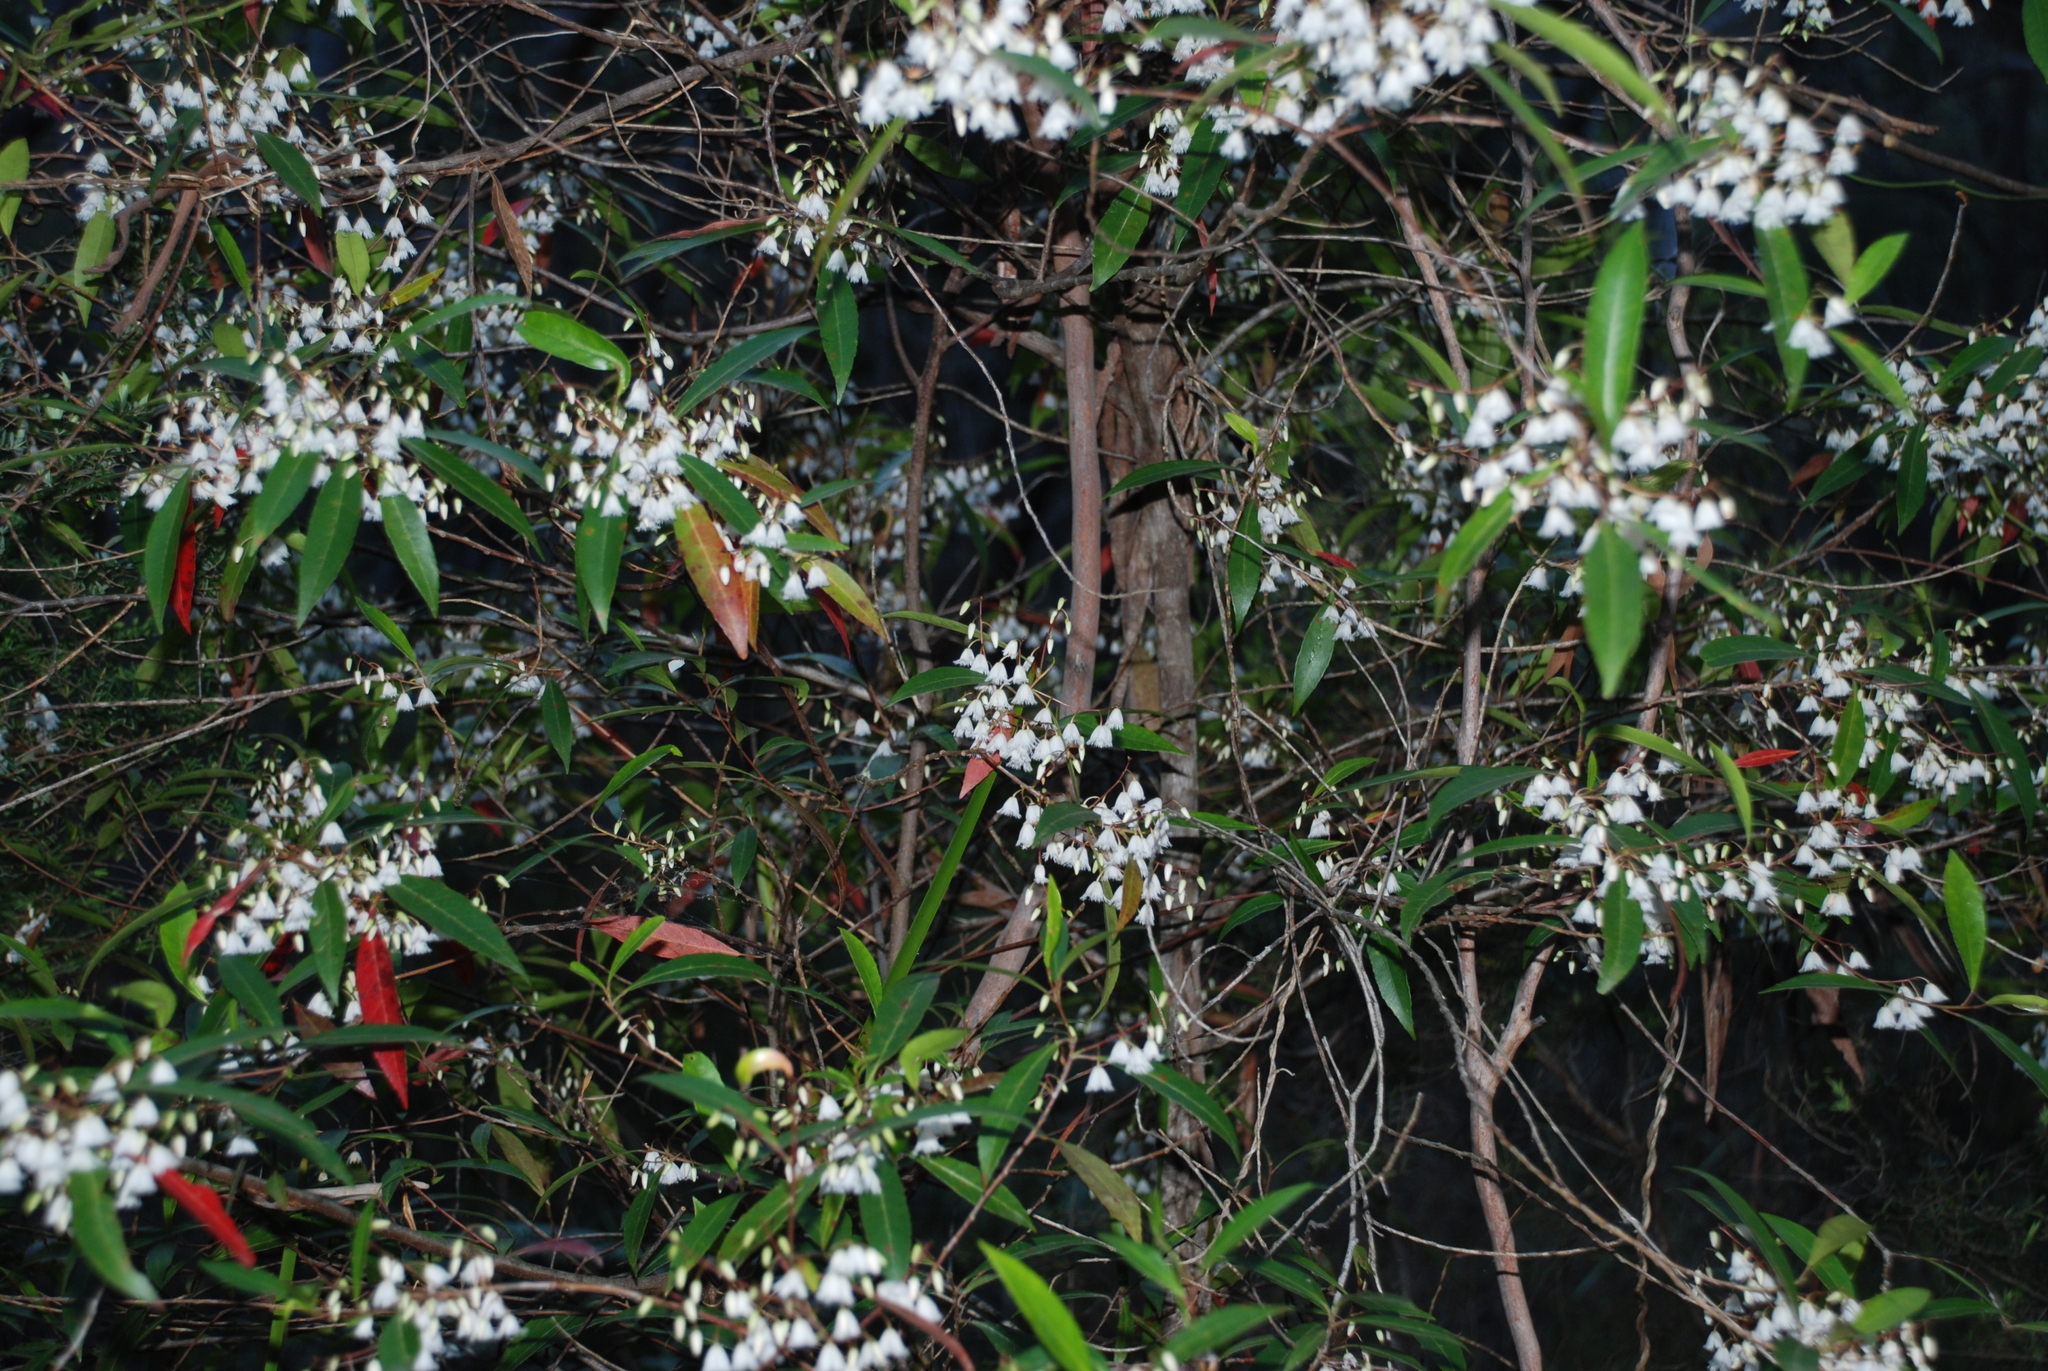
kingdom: Plantae
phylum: Tracheophyta
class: Magnoliopsida
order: Oxalidales
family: Elaeocarpaceae
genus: Elaeocarpus
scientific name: Elaeocarpus reticulatus
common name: Ash quandong
